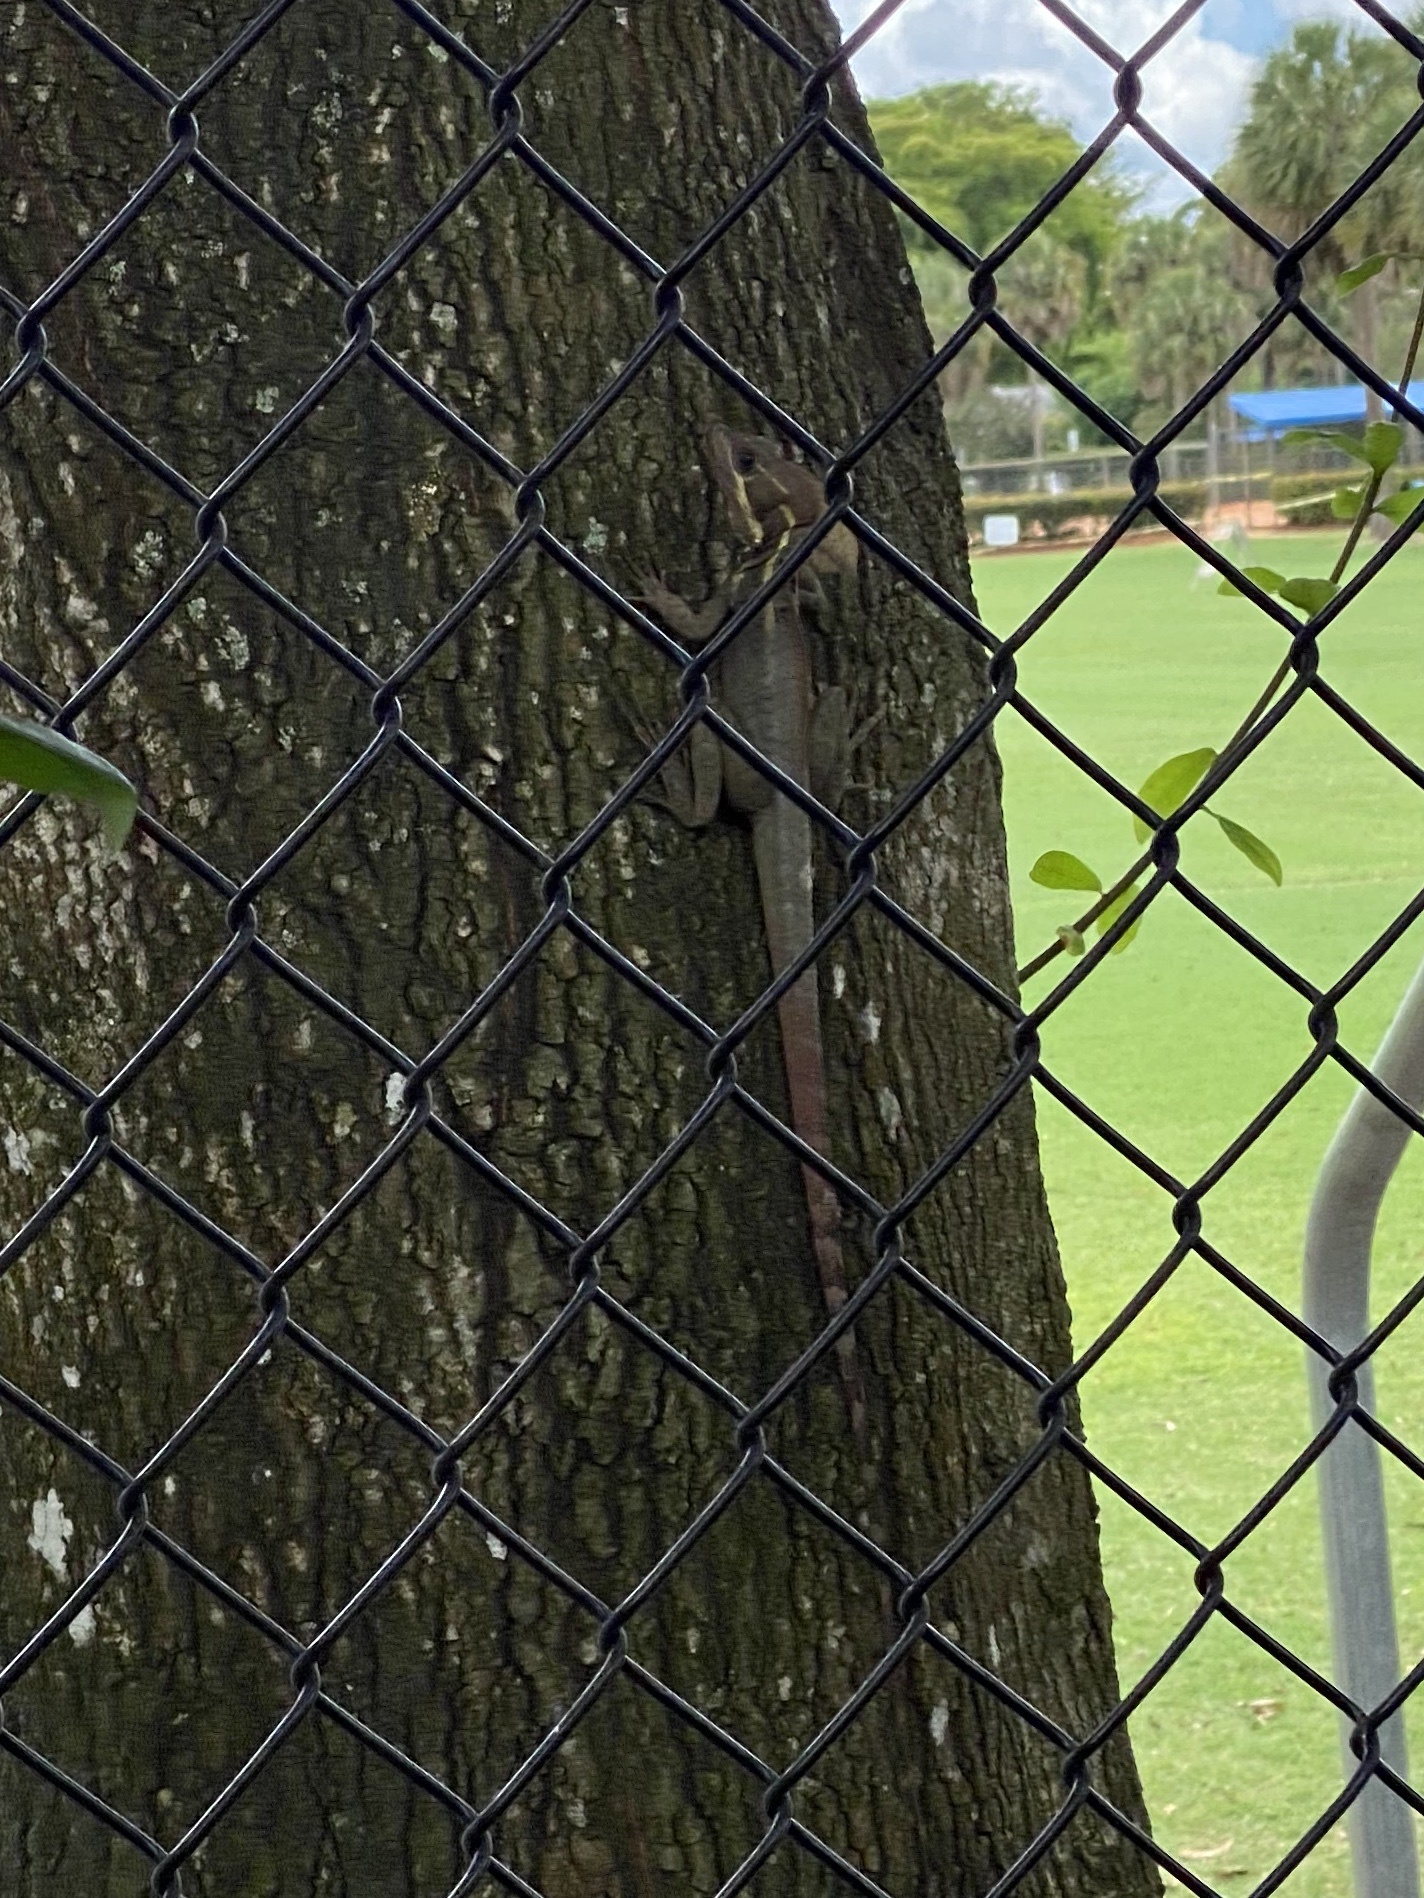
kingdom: Animalia
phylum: Chordata
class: Squamata
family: Corytophanidae
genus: Basiliscus
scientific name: Basiliscus vittatus
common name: Brown basilisk
